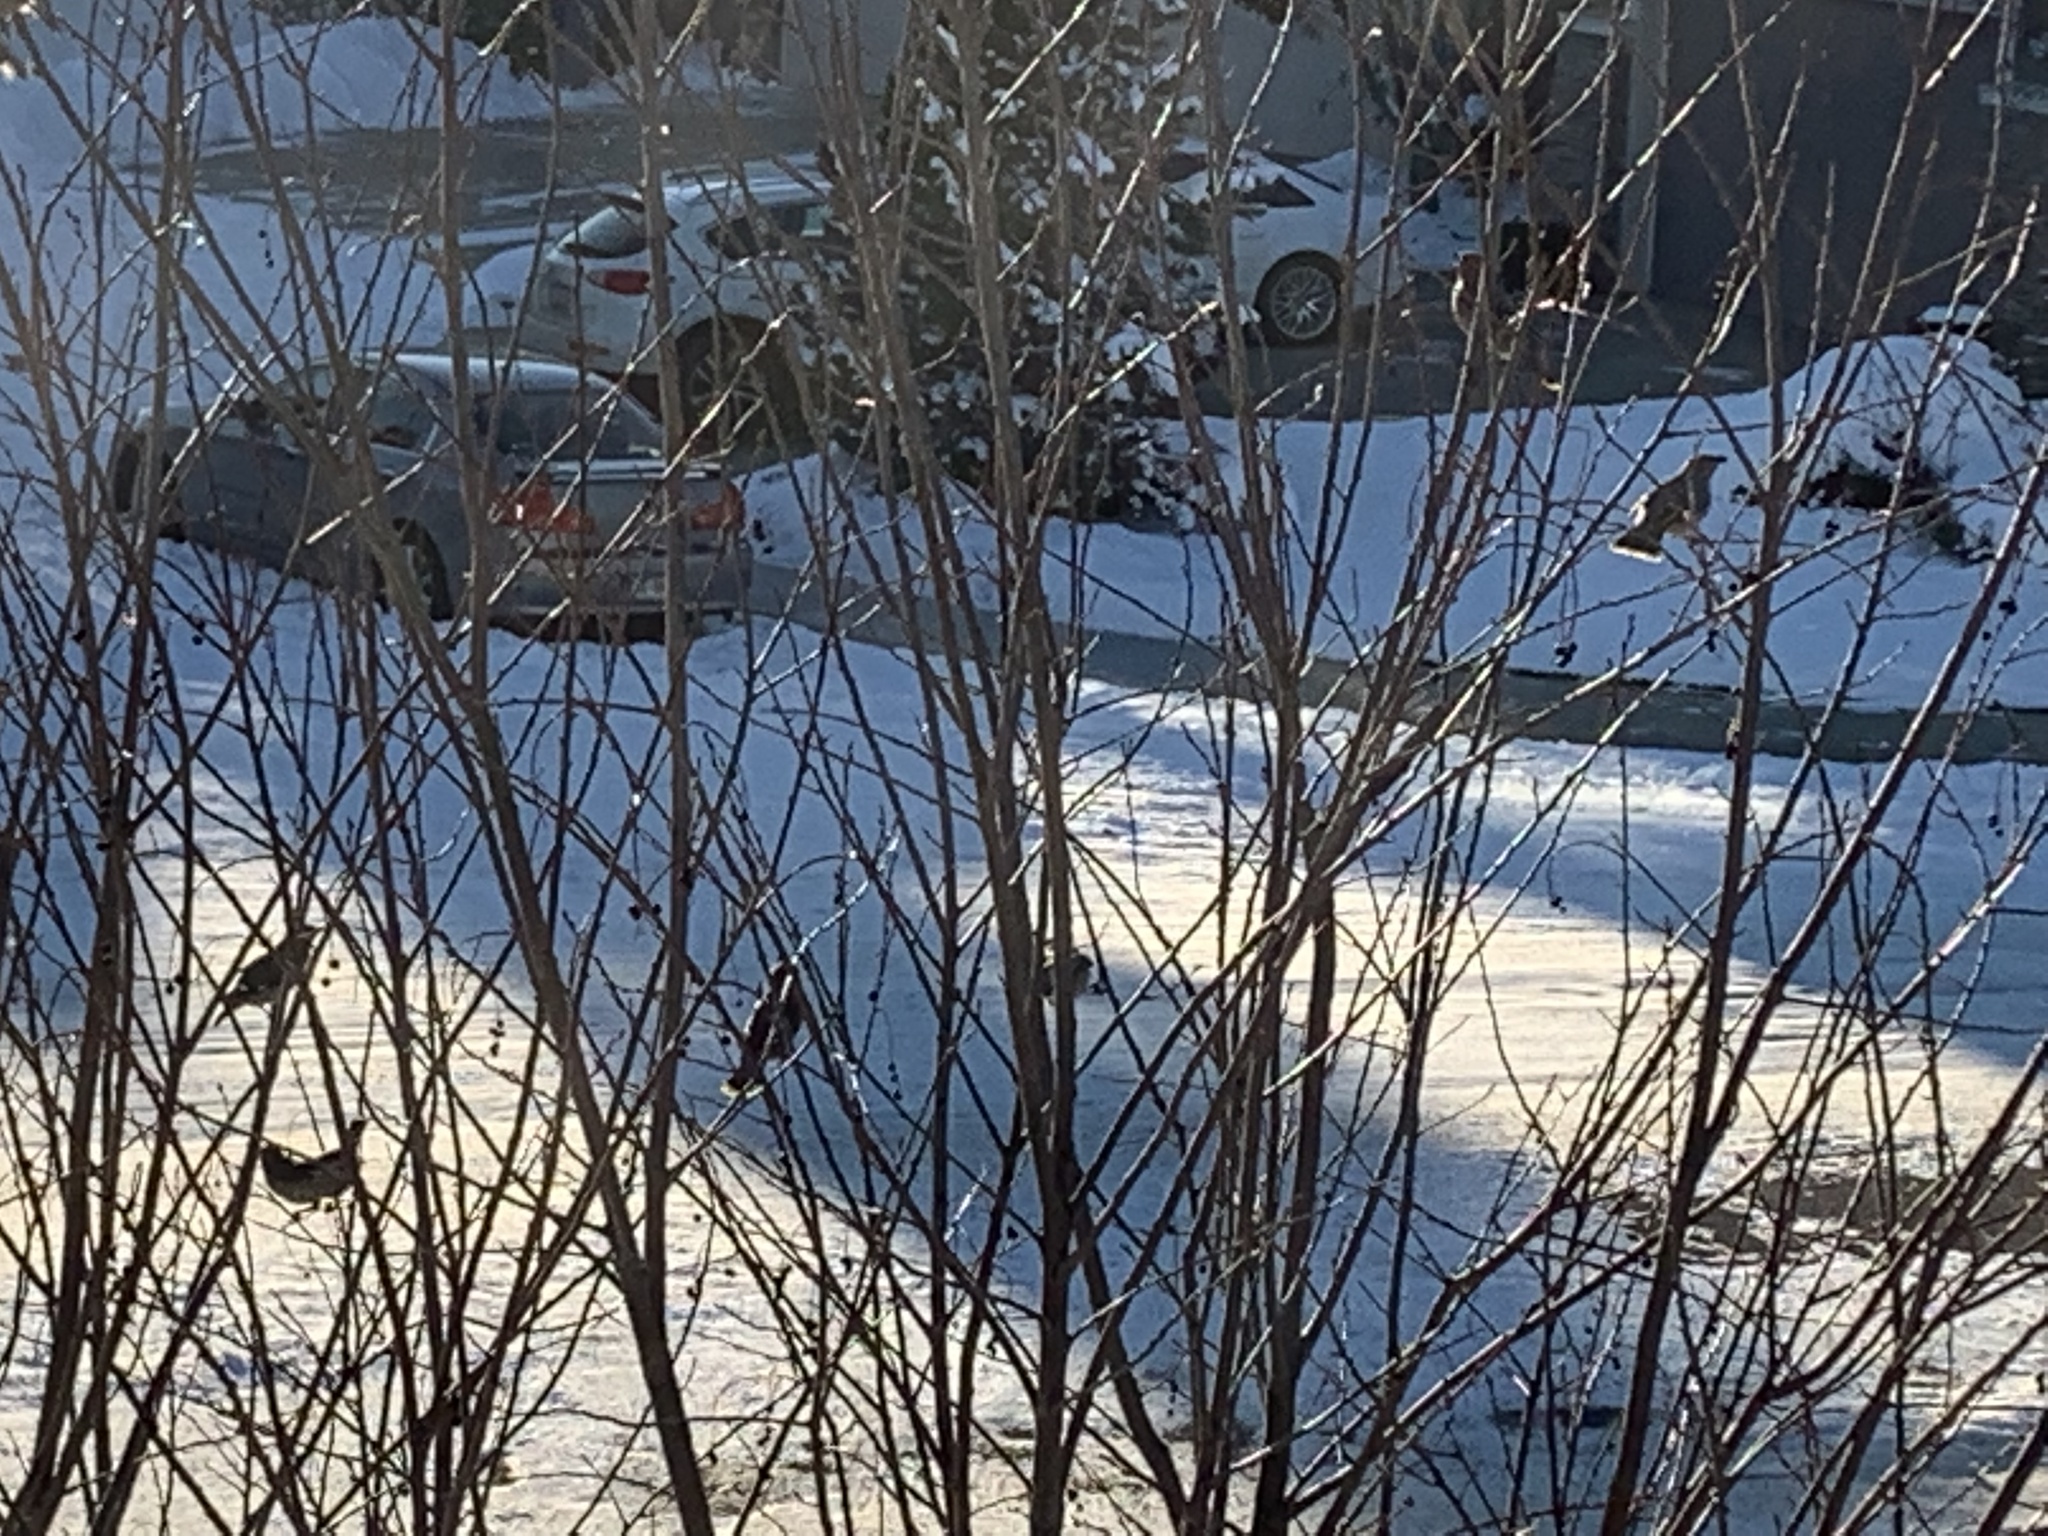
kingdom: Animalia
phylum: Chordata
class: Aves
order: Passeriformes
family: Bombycillidae
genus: Bombycilla
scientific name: Bombycilla garrulus
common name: Bohemian waxwing
